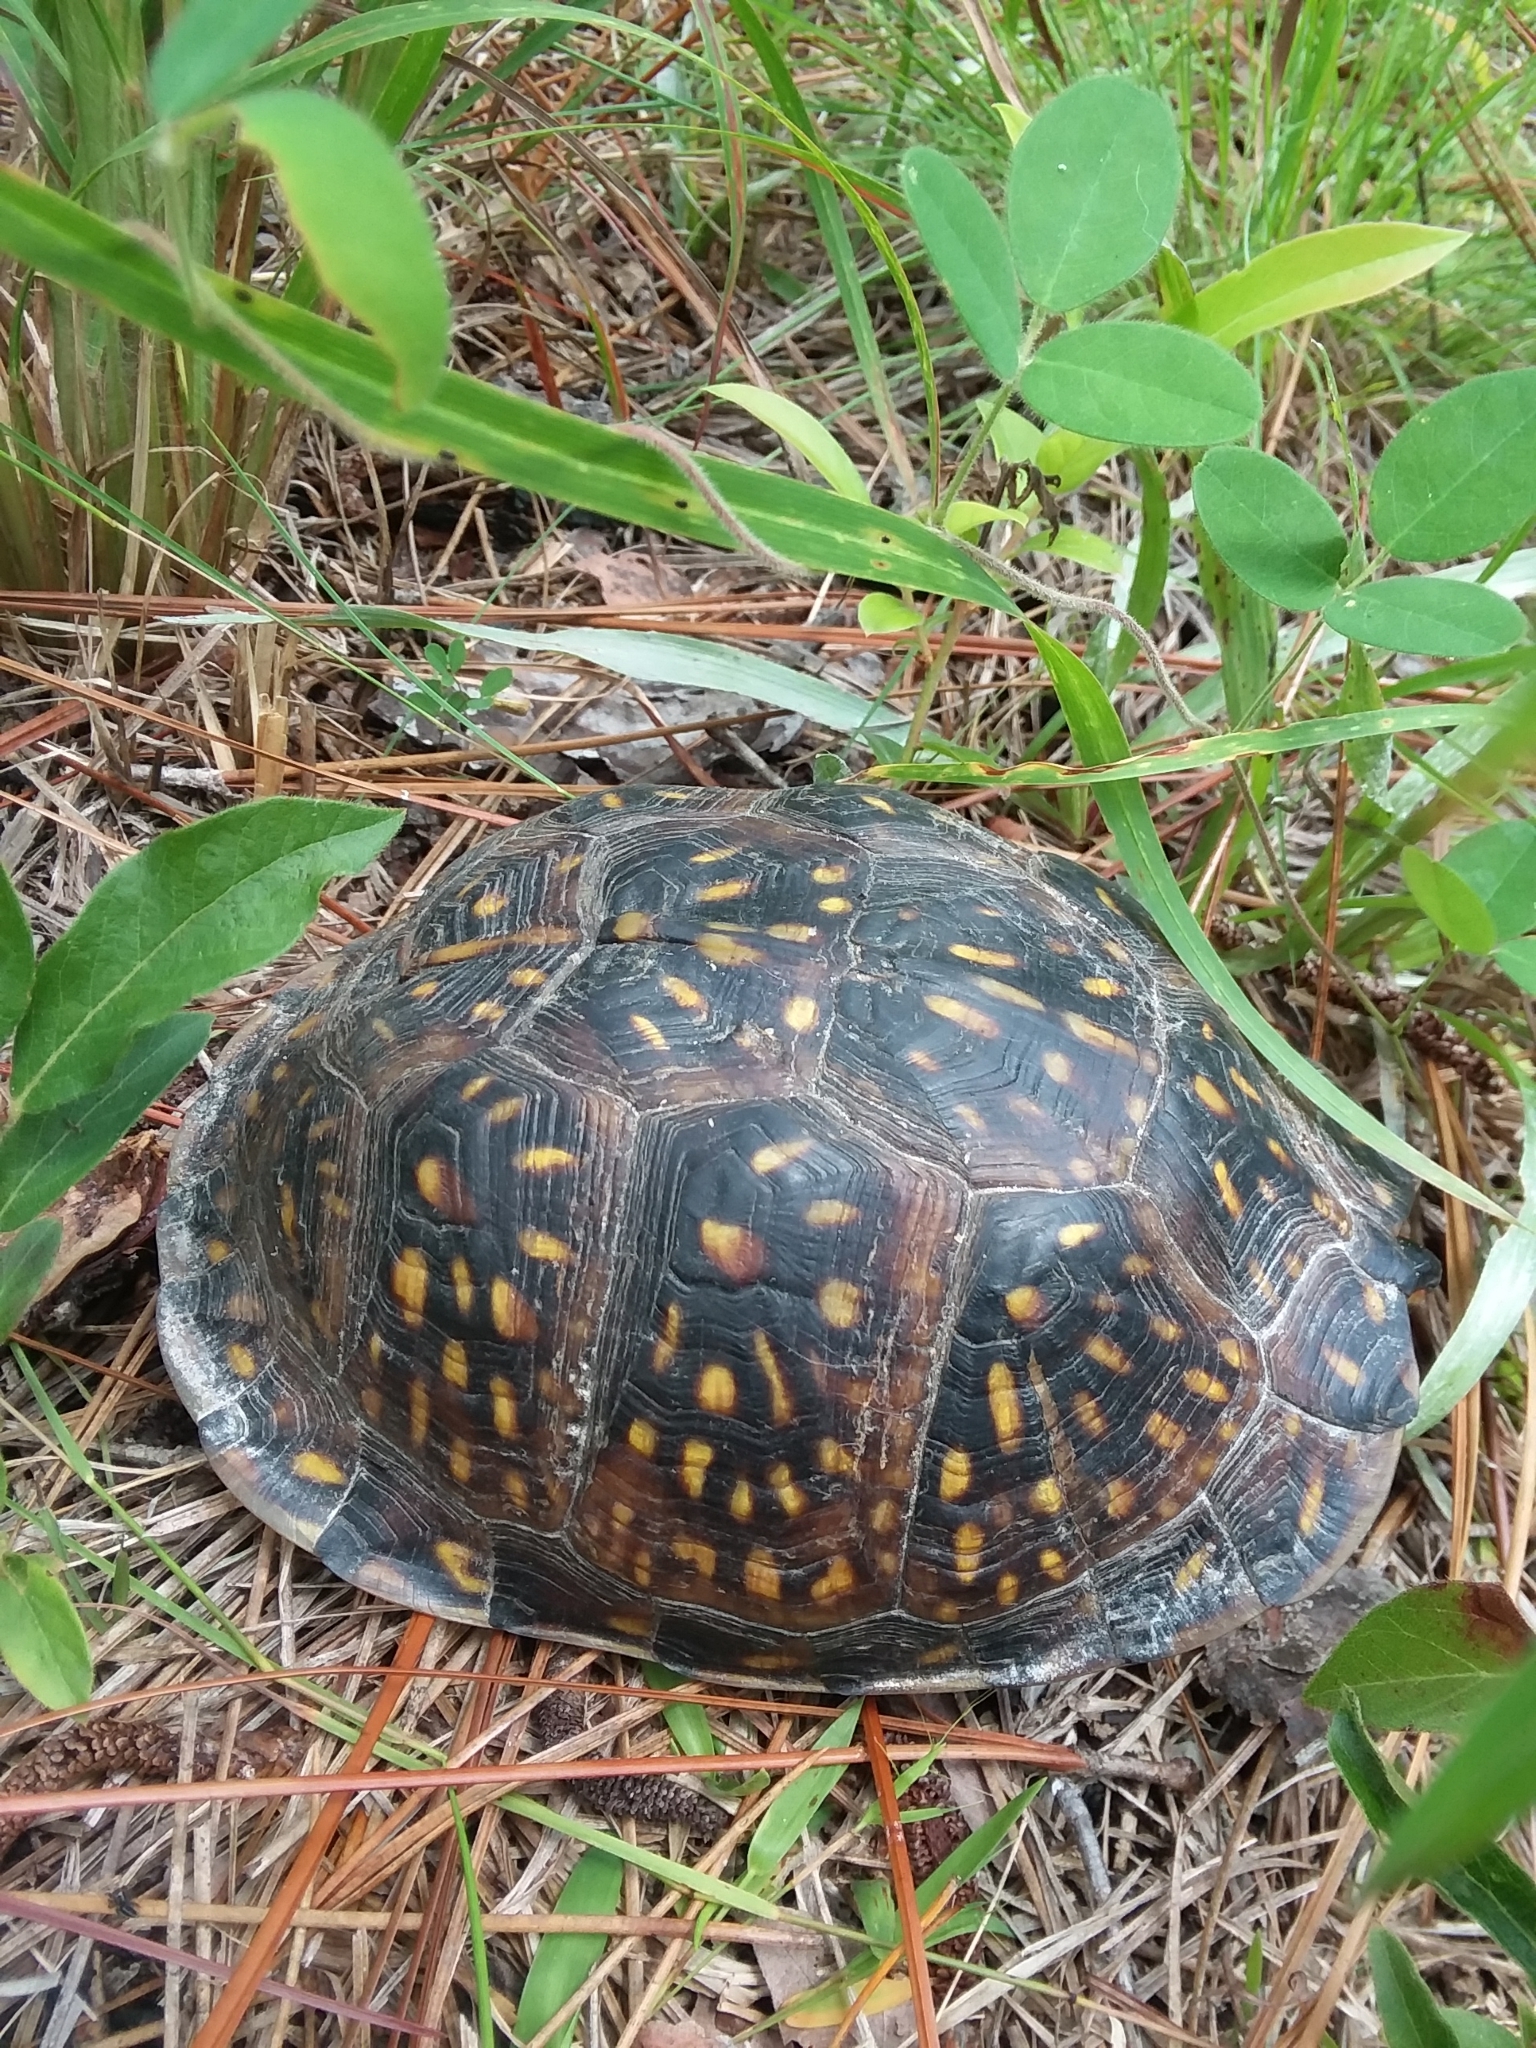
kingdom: Animalia
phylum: Chordata
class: Testudines
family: Emydidae
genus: Terrapene
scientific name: Terrapene carolina
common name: Common box turtle
